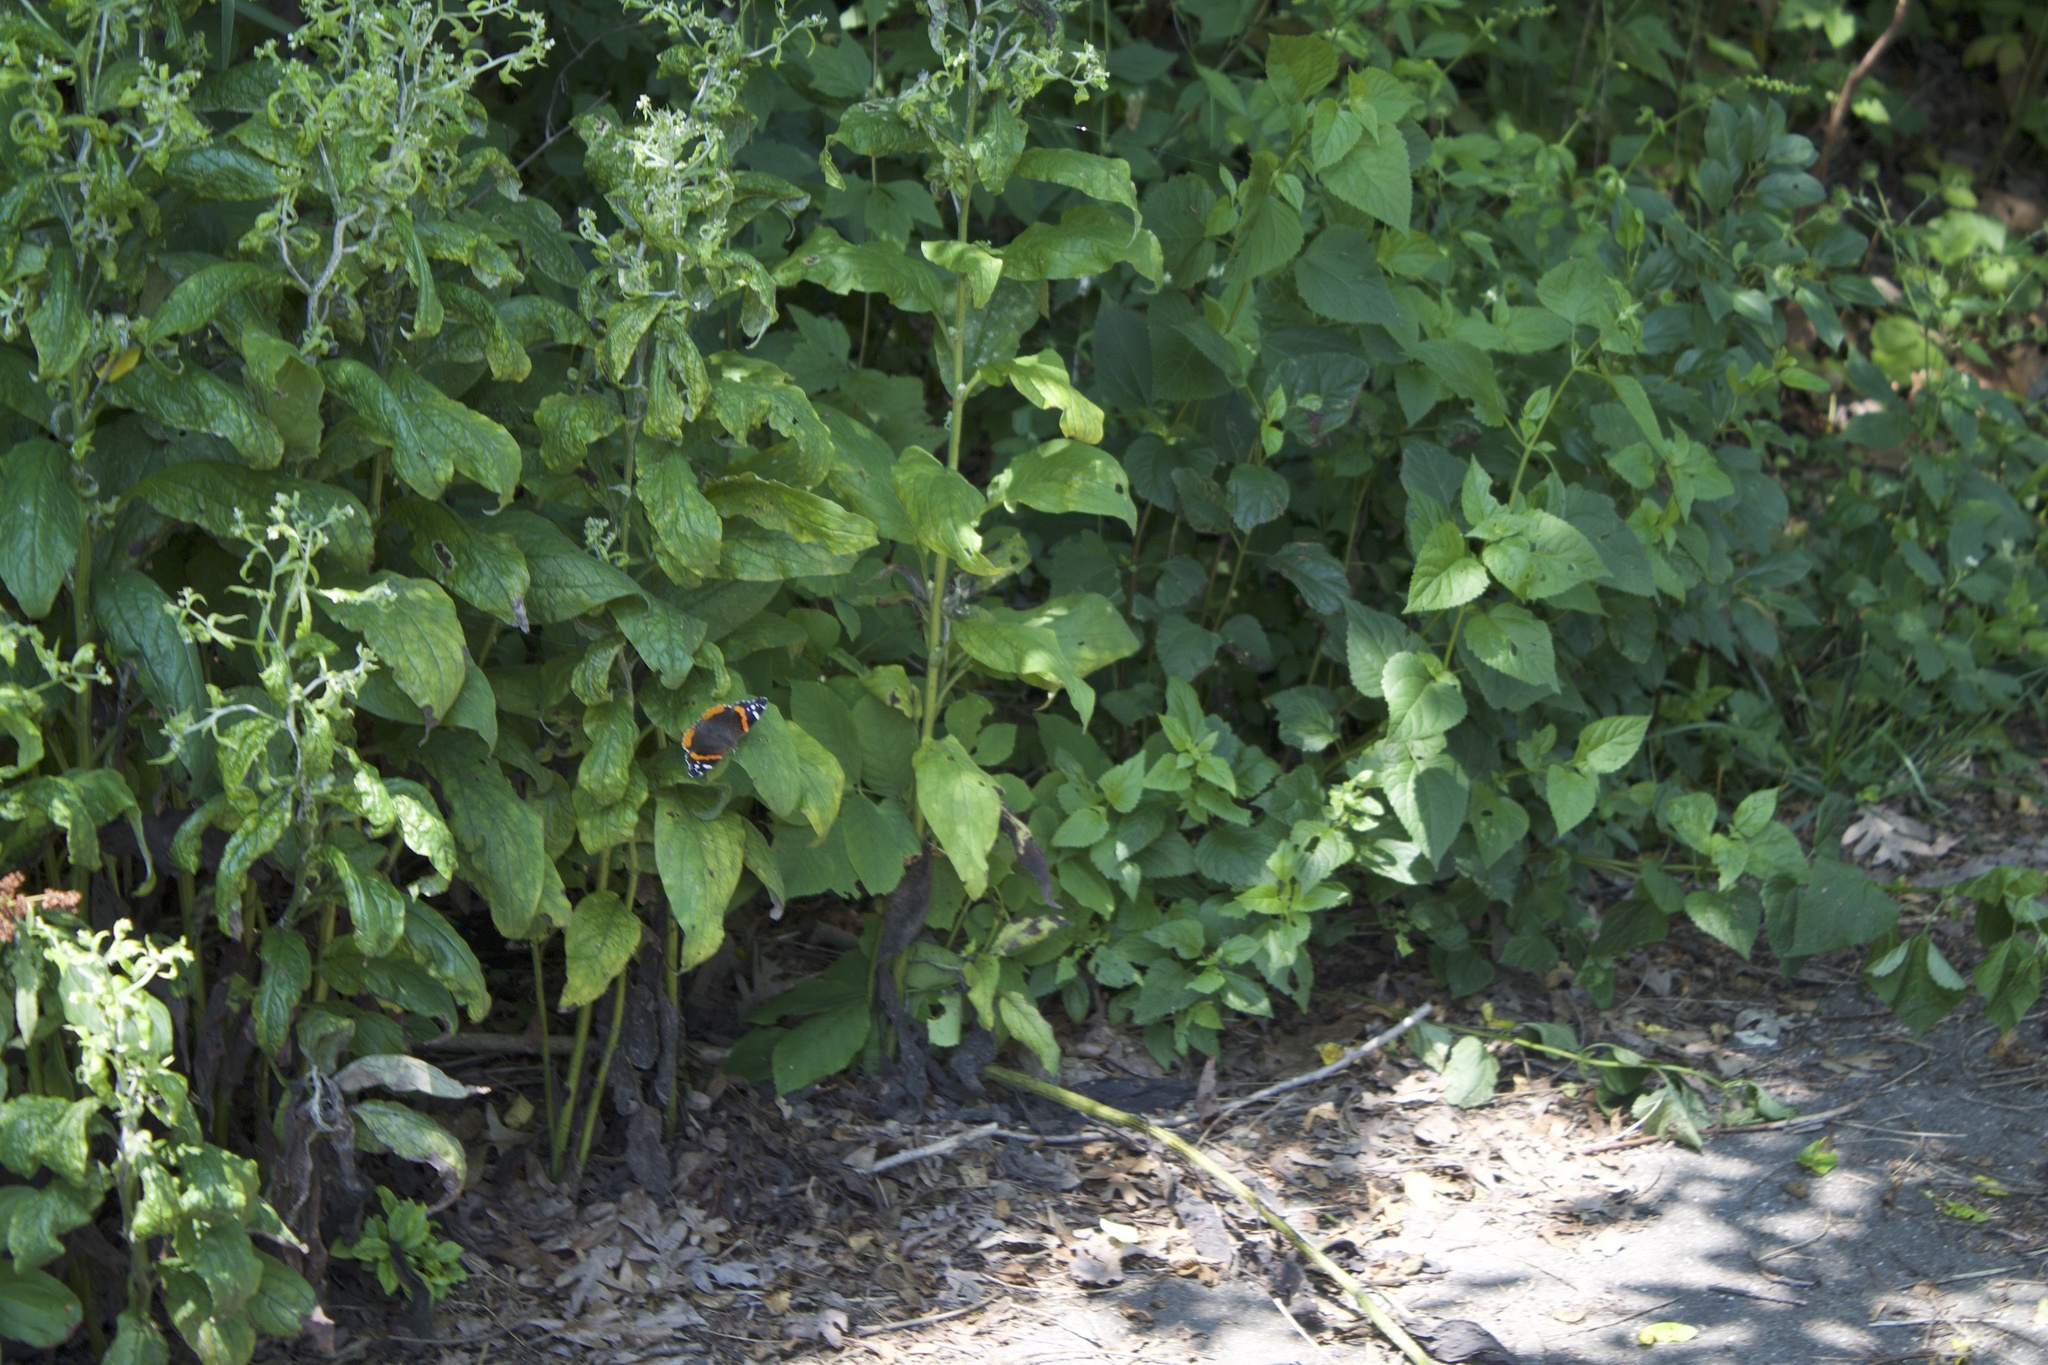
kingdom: Animalia
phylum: Arthropoda
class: Insecta
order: Lepidoptera
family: Nymphalidae
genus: Vanessa
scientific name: Vanessa atalanta
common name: Red admiral
